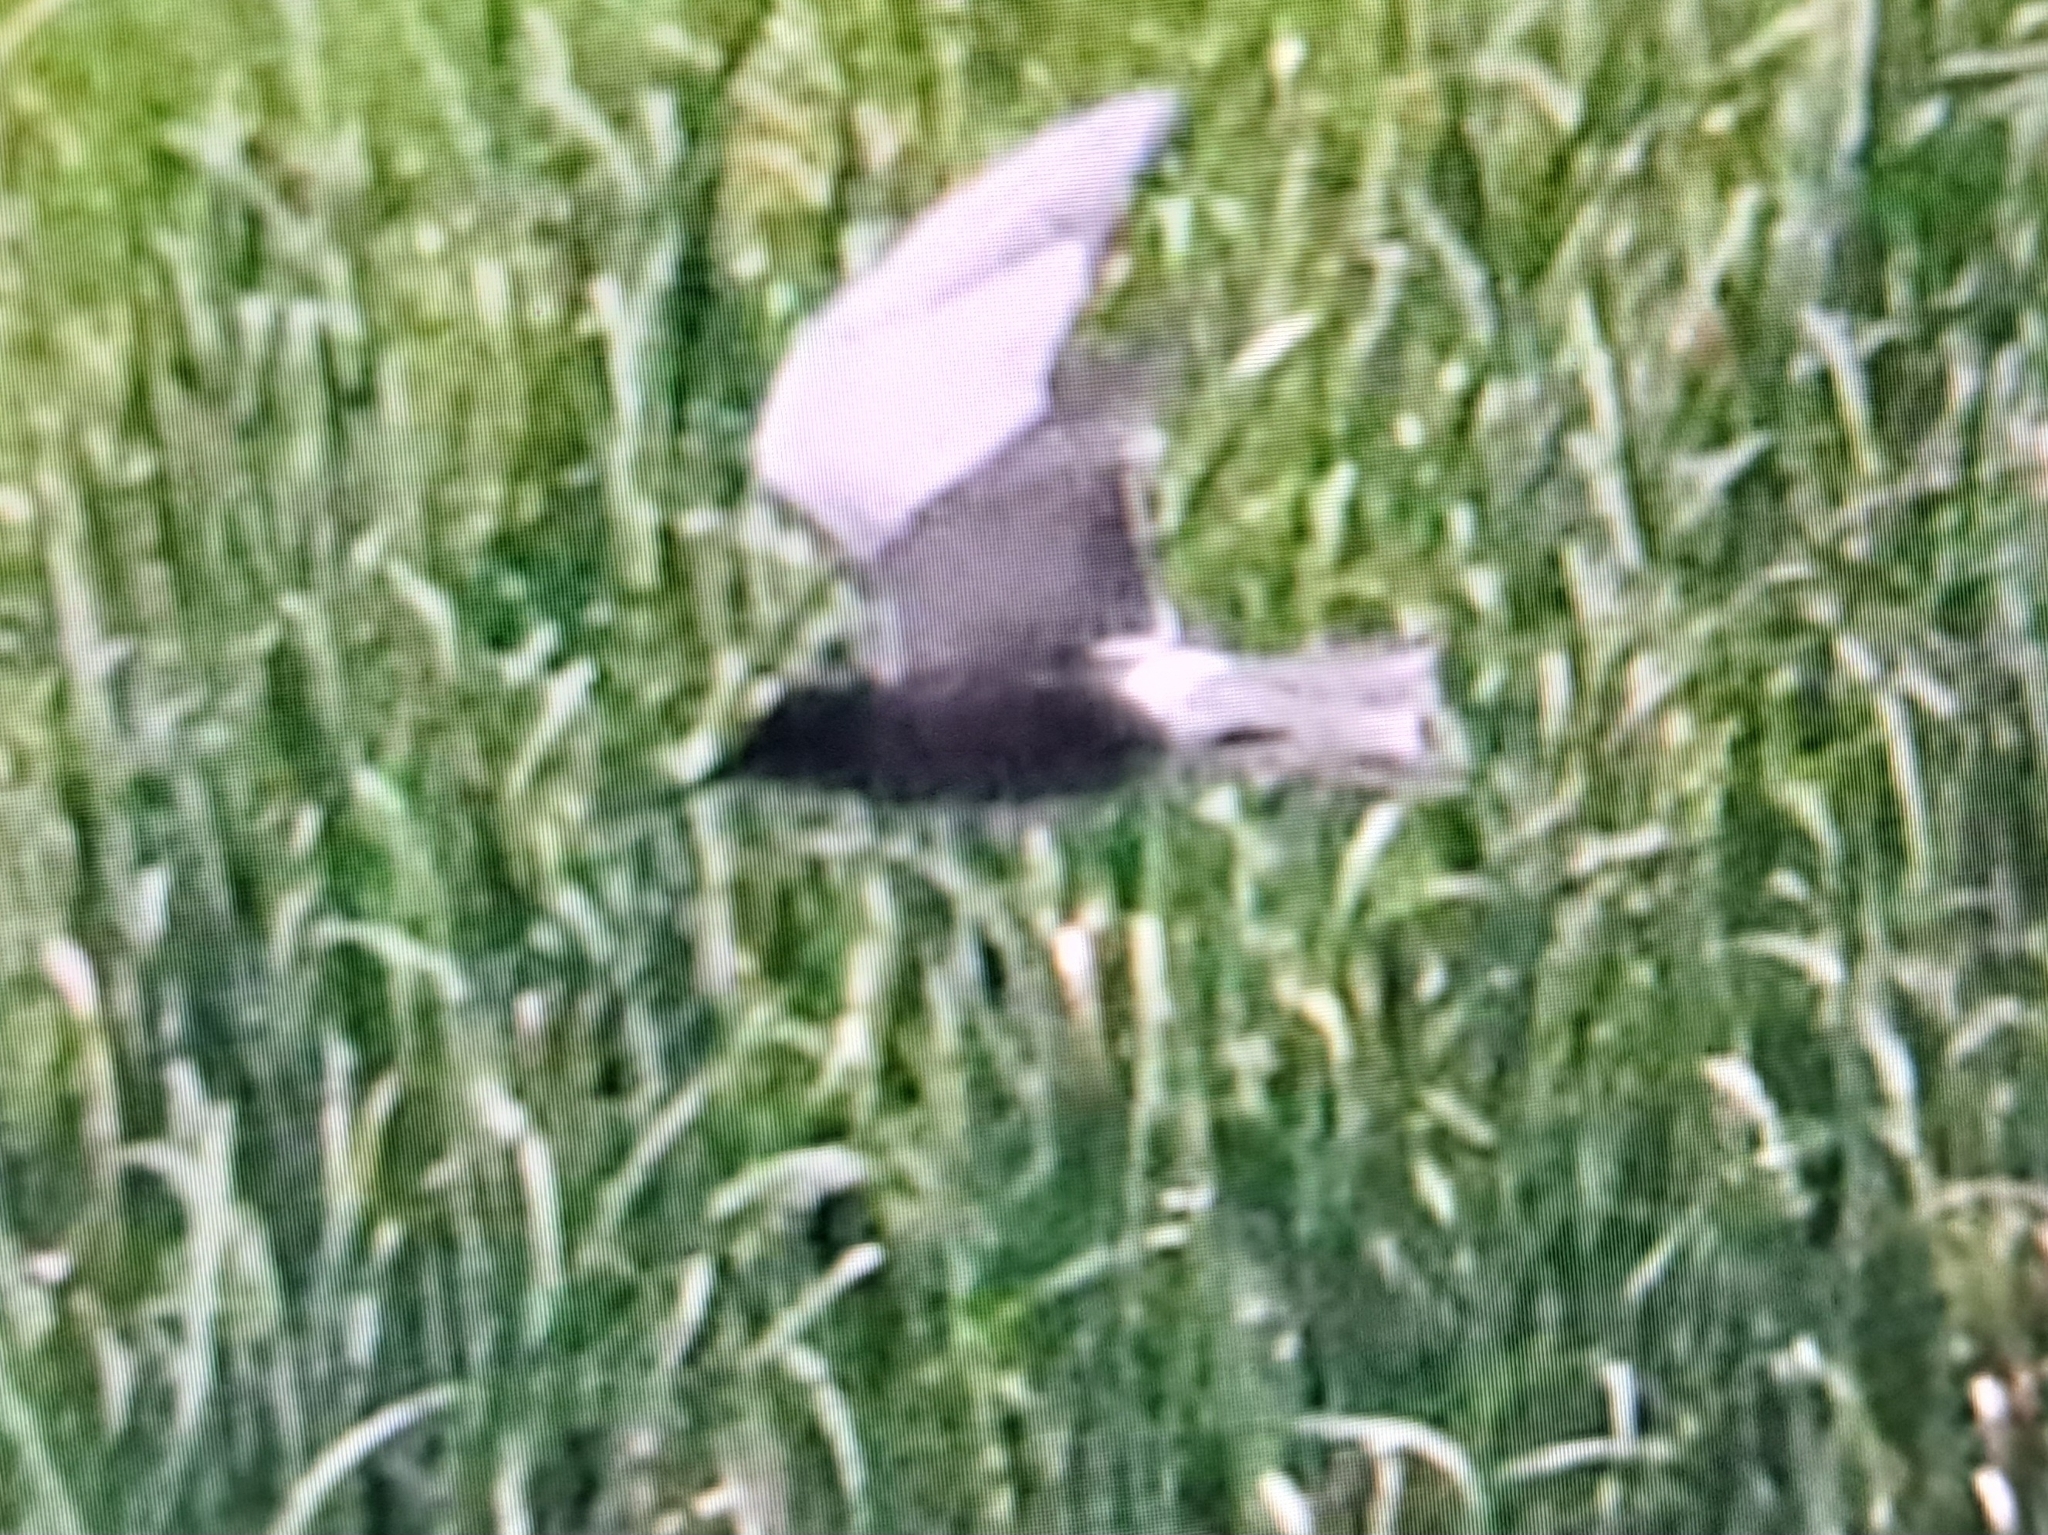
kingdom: Animalia
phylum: Chordata
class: Aves
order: Charadriiformes
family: Laridae
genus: Chlidonias
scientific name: Chlidonias niger
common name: Black tern
